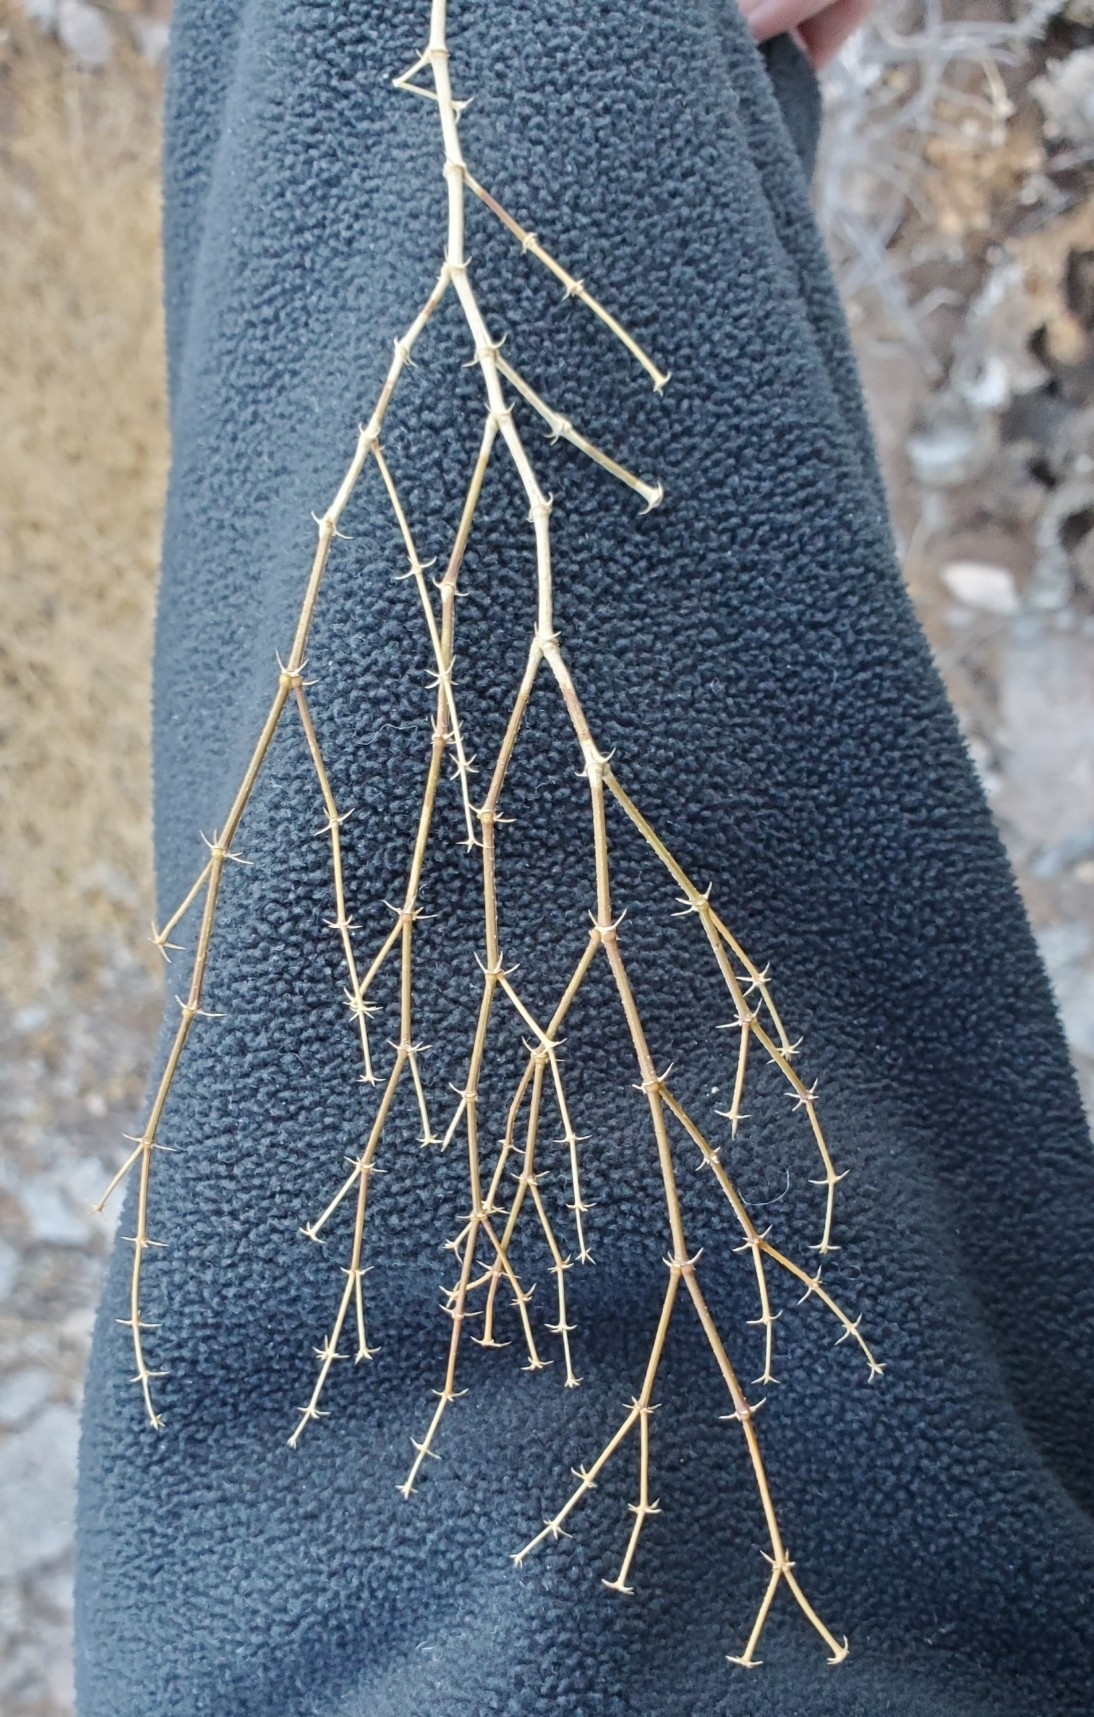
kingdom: Plantae
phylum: Tracheophyta
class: Magnoliopsida
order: Zygophyllales
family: Zygophyllaceae
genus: Fagonia
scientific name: Fagonia laevis
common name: California fagonbush
